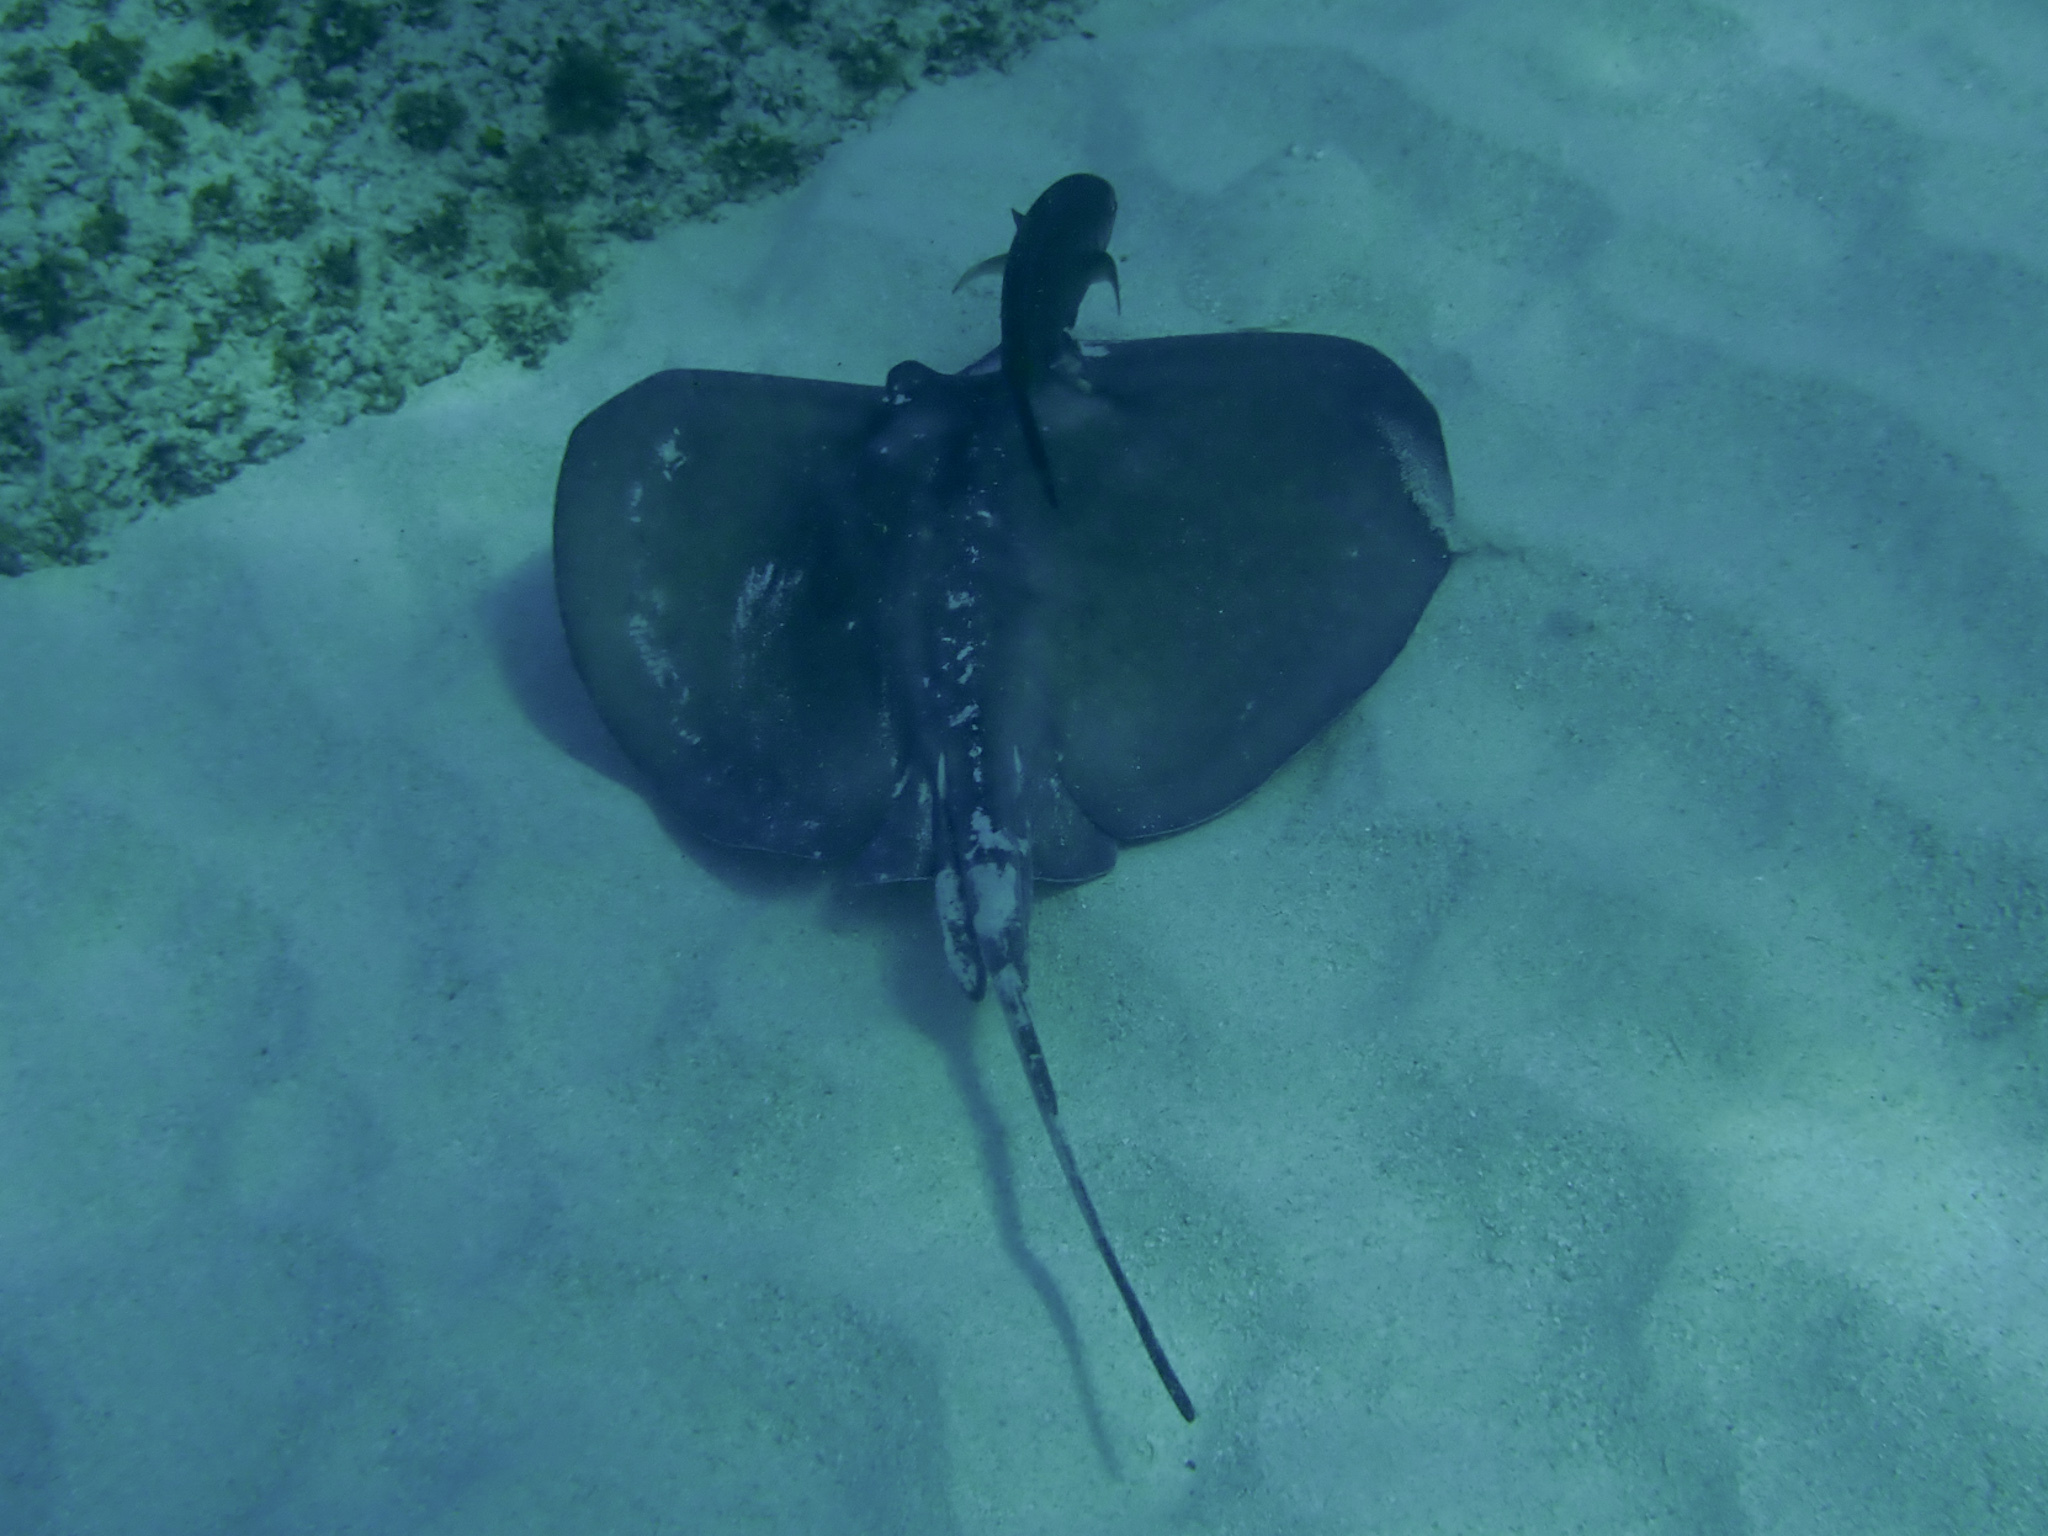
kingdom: Animalia
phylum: Chordata
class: Elasmobranchii
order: Myliobatiformes
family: Dasyatidae
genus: Hypanus
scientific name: Hypanus americanus
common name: Southern stingray
